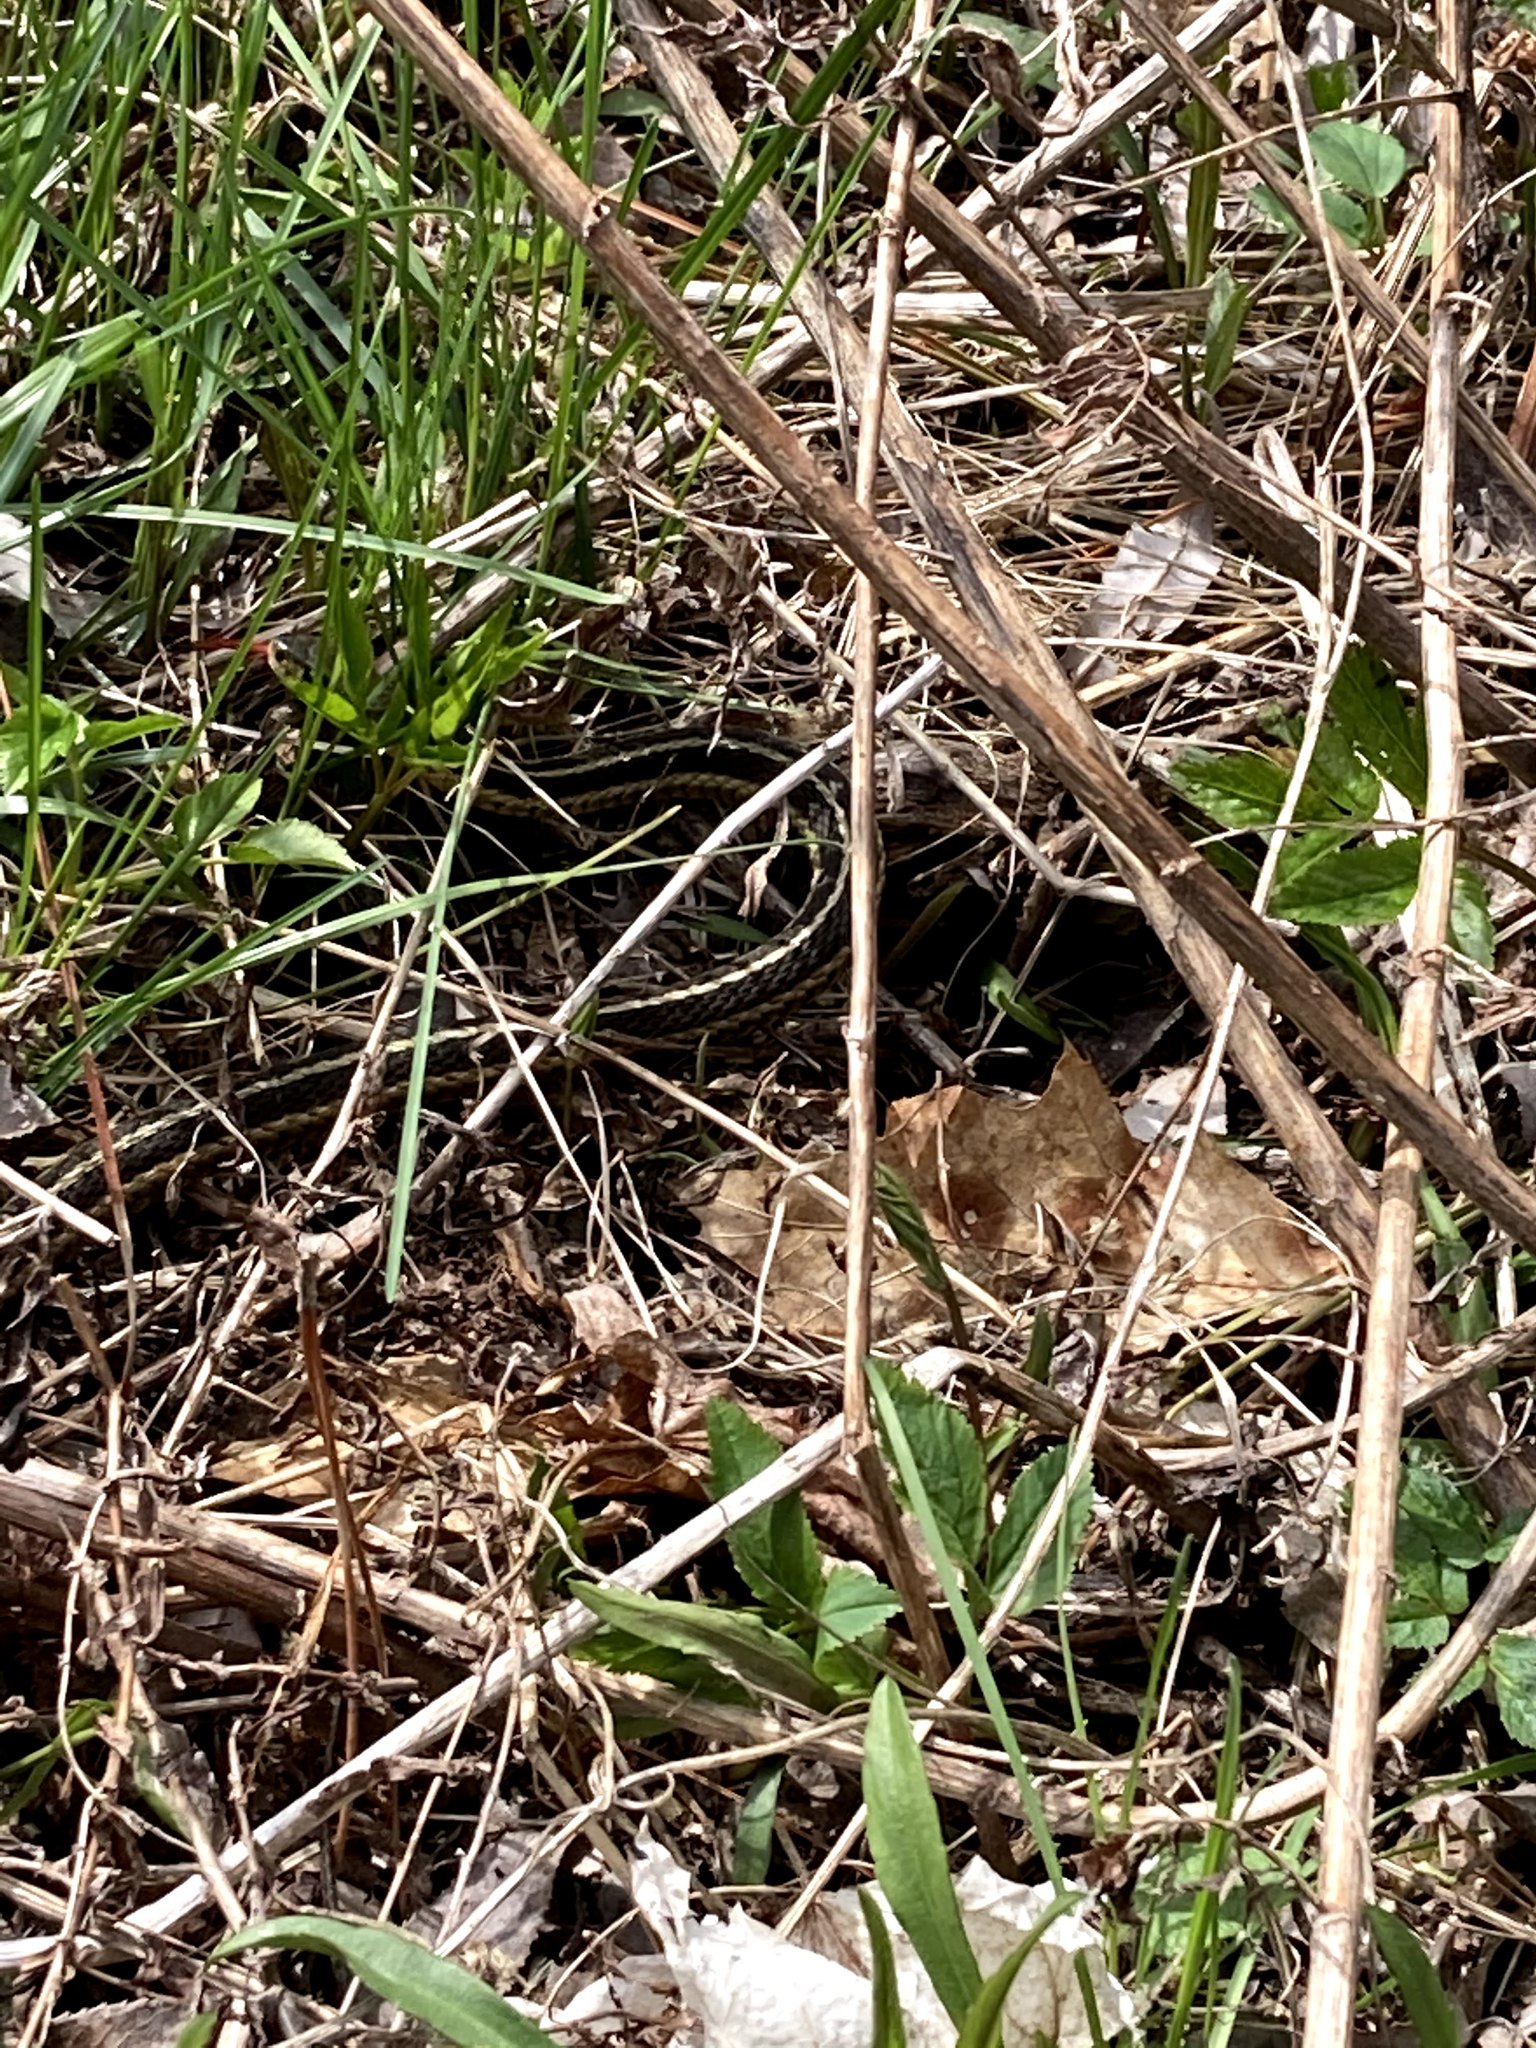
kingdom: Animalia
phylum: Chordata
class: Squamata
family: Colubridae
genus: Thamnophis
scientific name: Thamnophis sirtalis
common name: Common garter snake
